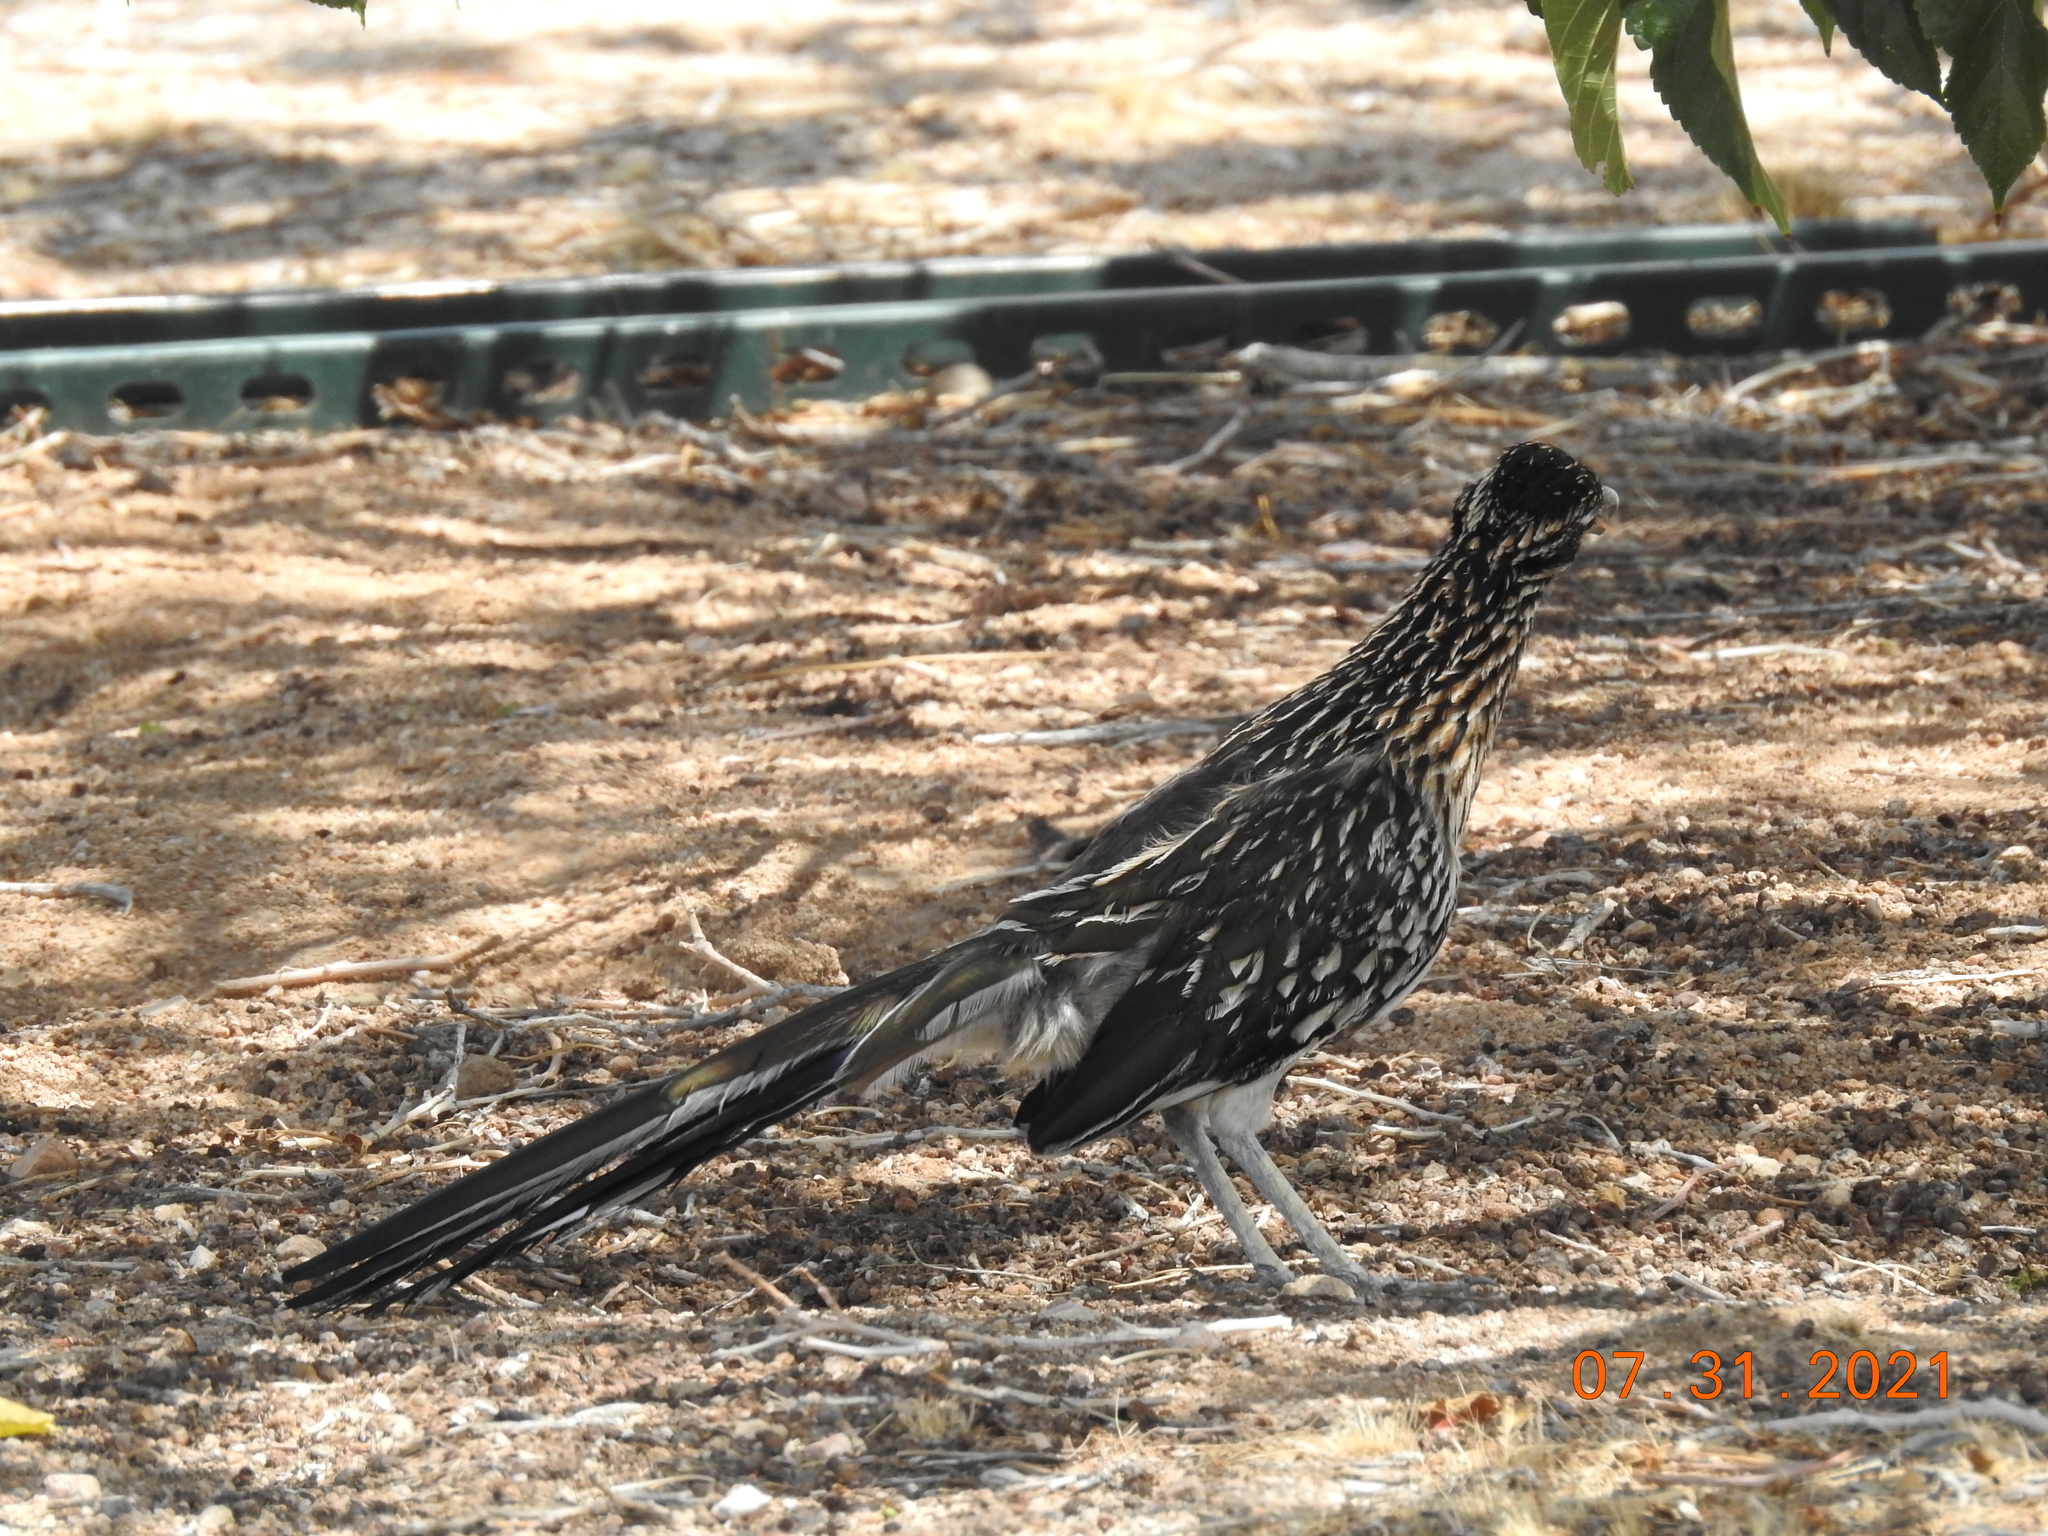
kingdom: Animalia
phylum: Chordata
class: Aves
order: Cuculiformes
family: Cuculidae
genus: Geococcyx
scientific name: Geococcyx californianus
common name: Greater roadrunner
